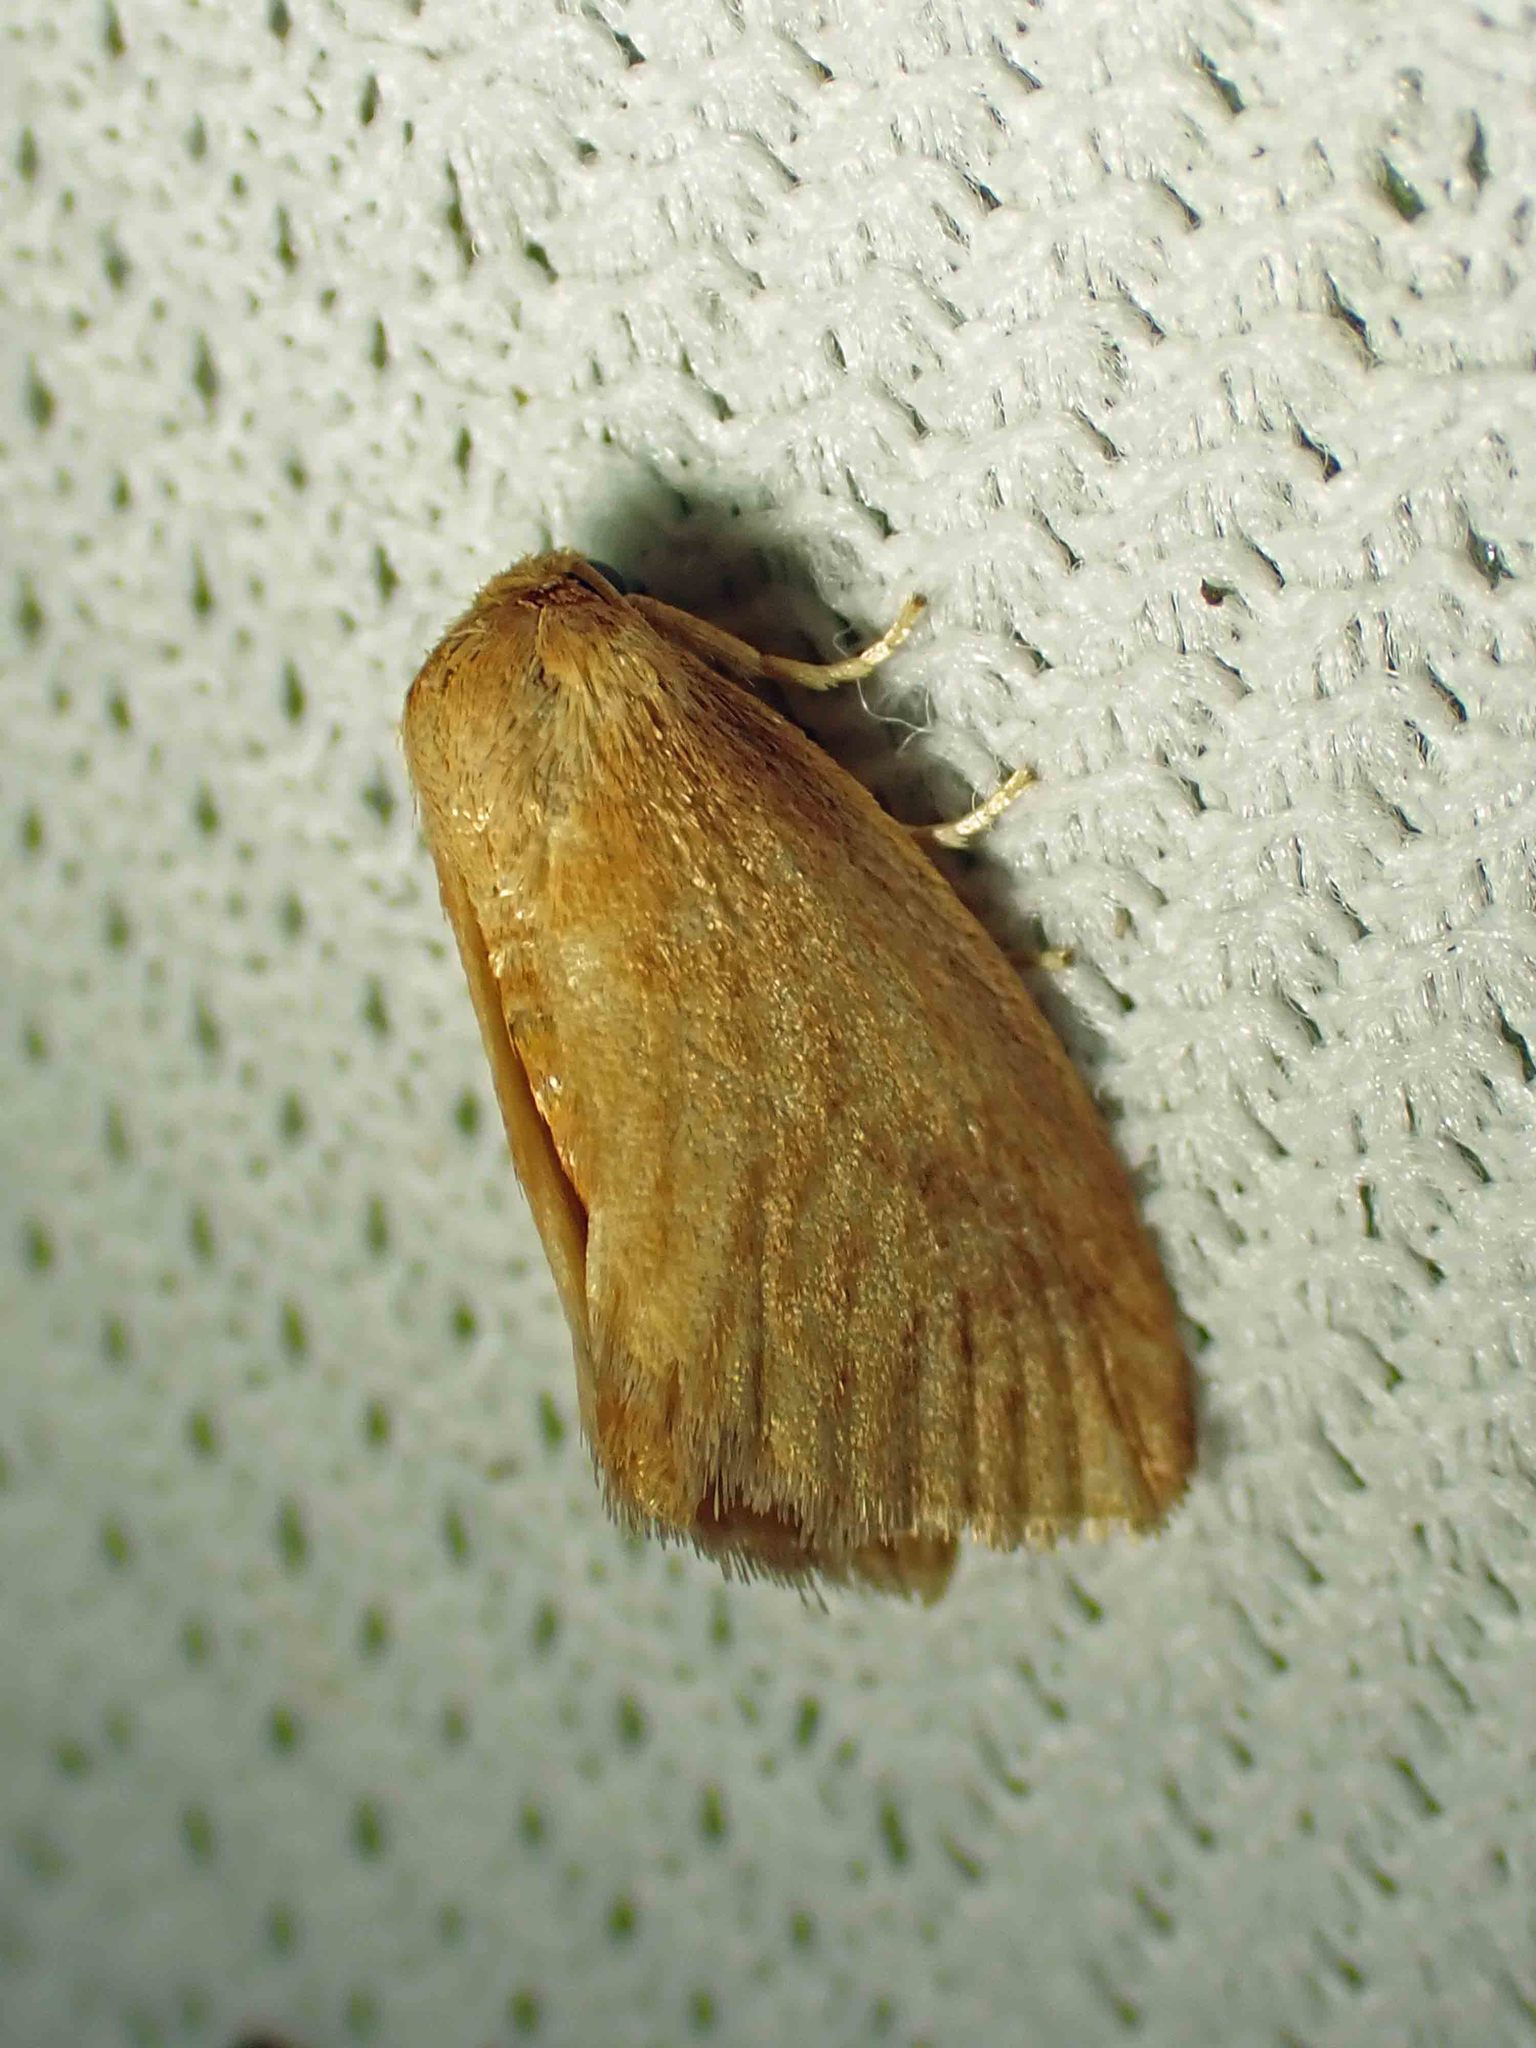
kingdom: Animalia
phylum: Arthropoda
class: Insecta
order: Lepidoptera
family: Limacodidae
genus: Tortricidia
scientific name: Tortricidia testacea
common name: Early button slug moth
